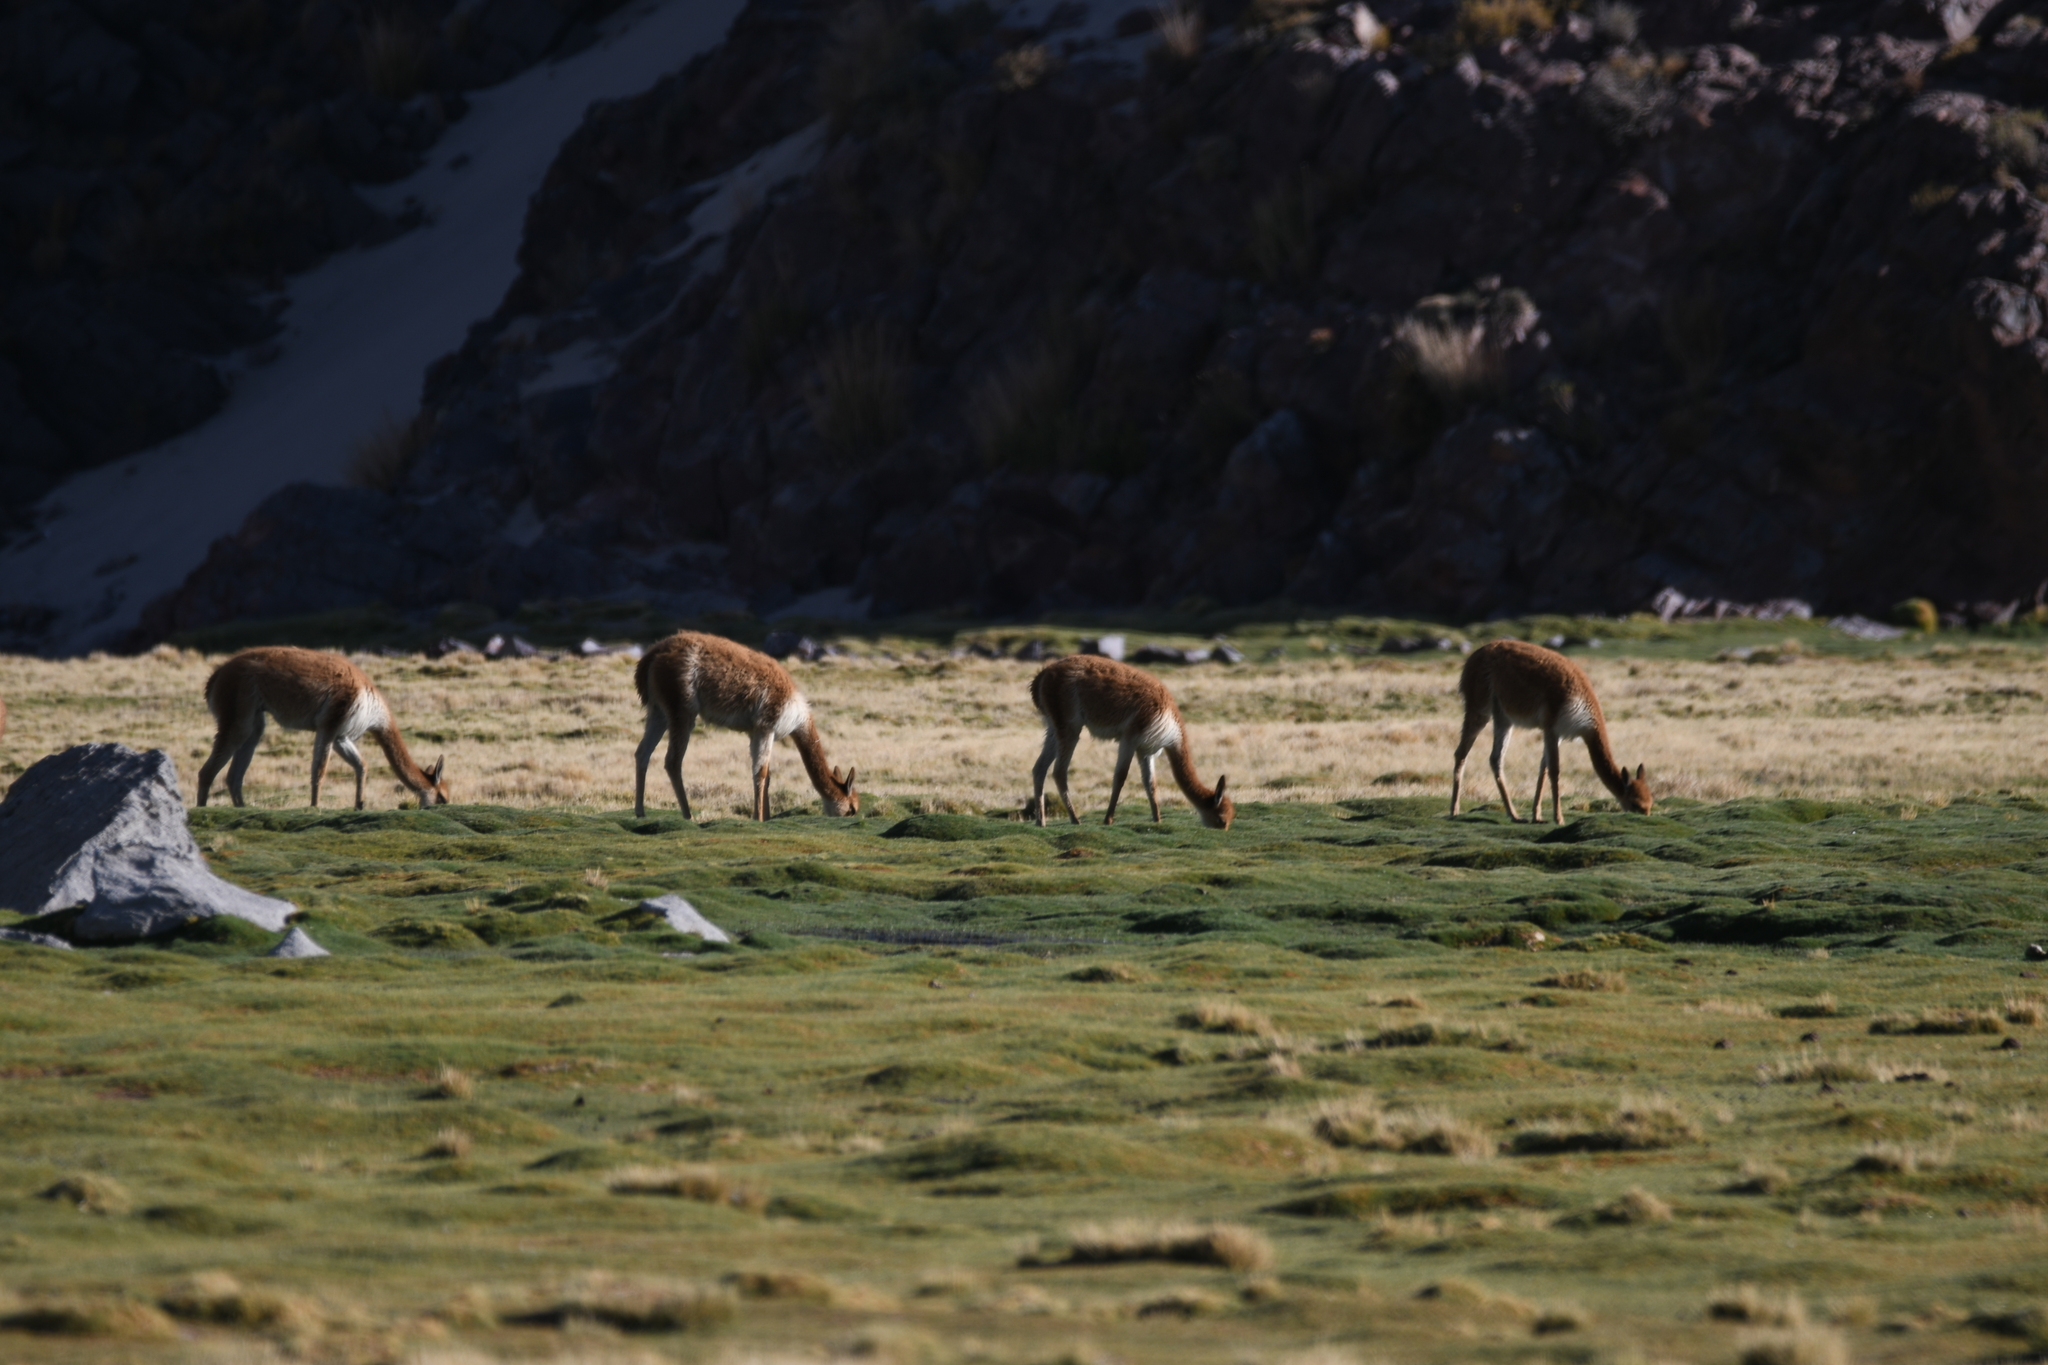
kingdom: Animalia
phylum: Chordata
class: Mammalia
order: Artiodactyla
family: Camelidae
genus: Vicugna
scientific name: Vicugna vicugna
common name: Vicugna
